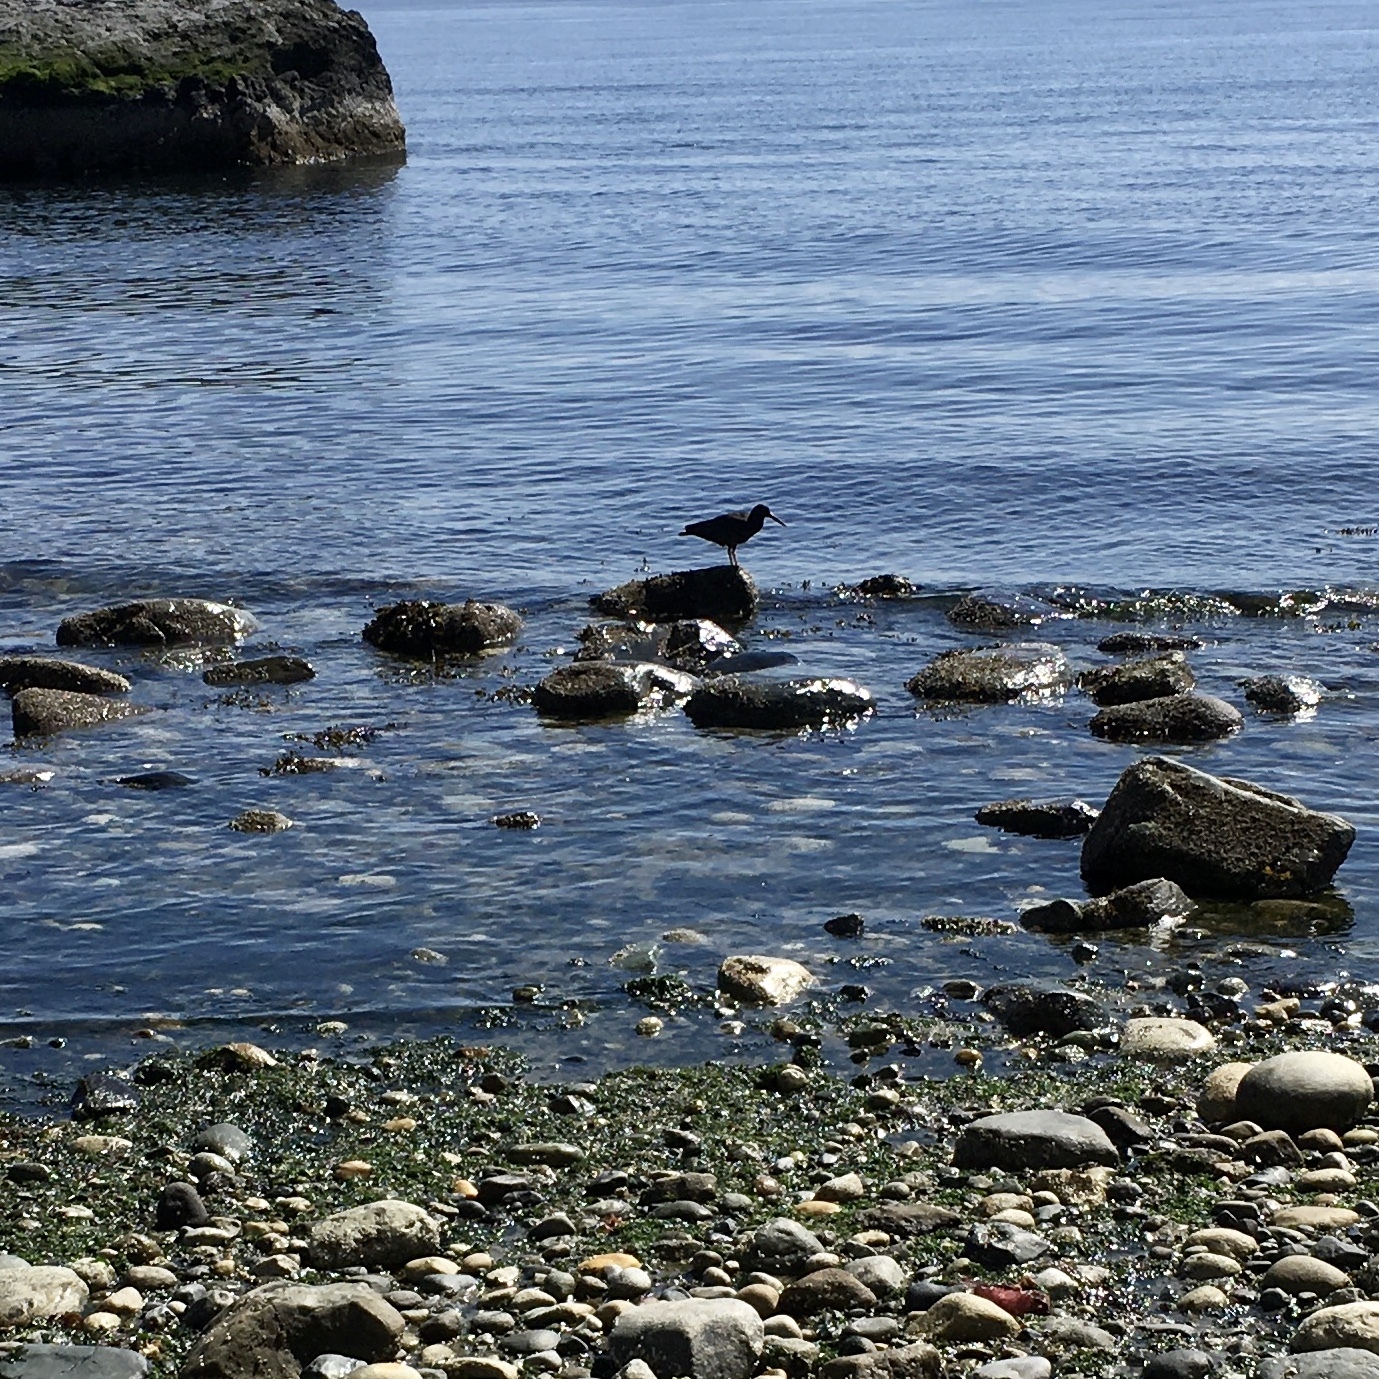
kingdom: Animalia
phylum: Chordata
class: Aves
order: Charadriiformes
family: Haematopodidae
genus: Haematopus
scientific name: Haematopus bachmani
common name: Black oystercatcher
